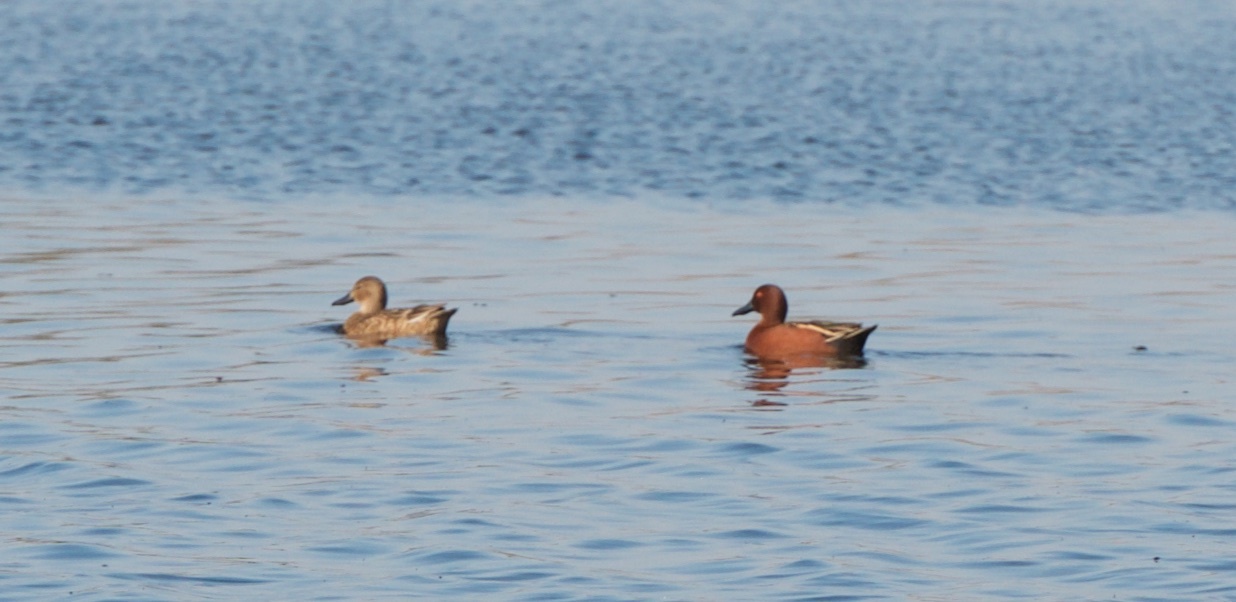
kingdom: Animalia
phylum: Chordata
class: Aves
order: Anseriformes
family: Anatidae
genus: Spatula
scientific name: Spatula cyanoptera
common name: Cinnamon teal
